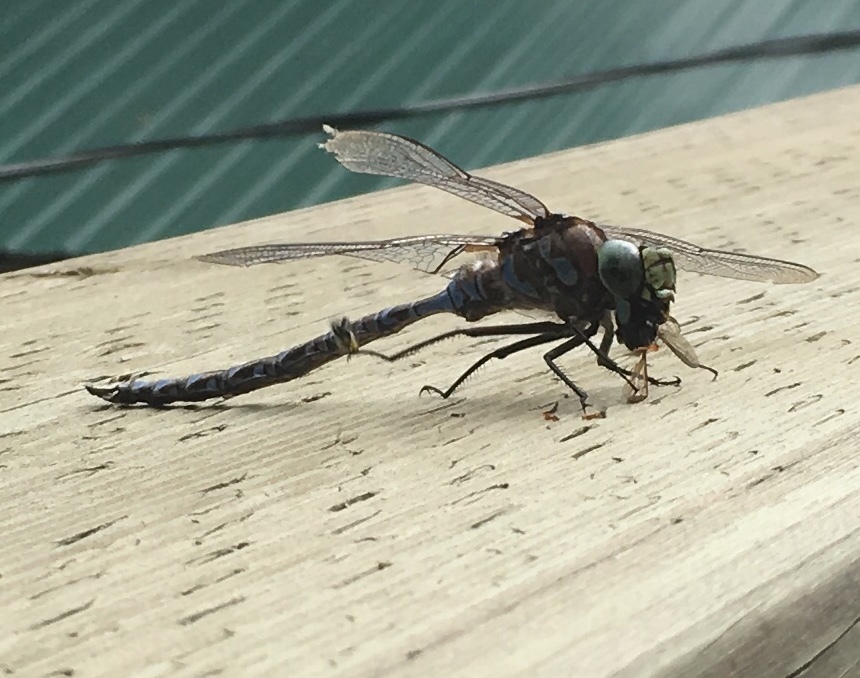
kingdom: Animalia
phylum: Arthropoda
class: Insecta
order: Odonata
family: Aeshnidae
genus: Aeshna
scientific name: Aeshna eremita
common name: Lake darner
